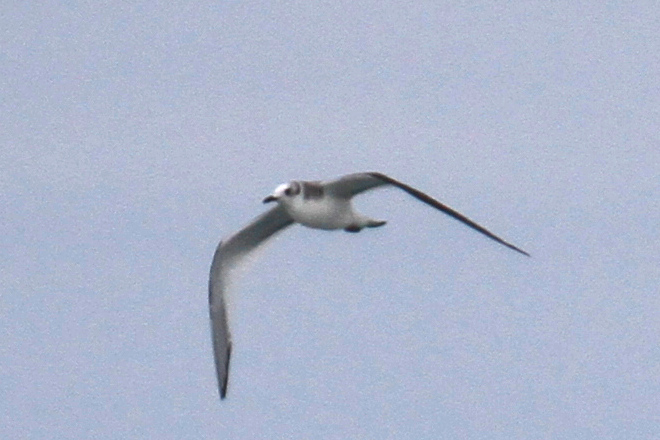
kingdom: Animalia
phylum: Chordata
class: Aves
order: Charadriiformes
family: Laridae
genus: Xema
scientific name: Xema sabini
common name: Sabine's gull
